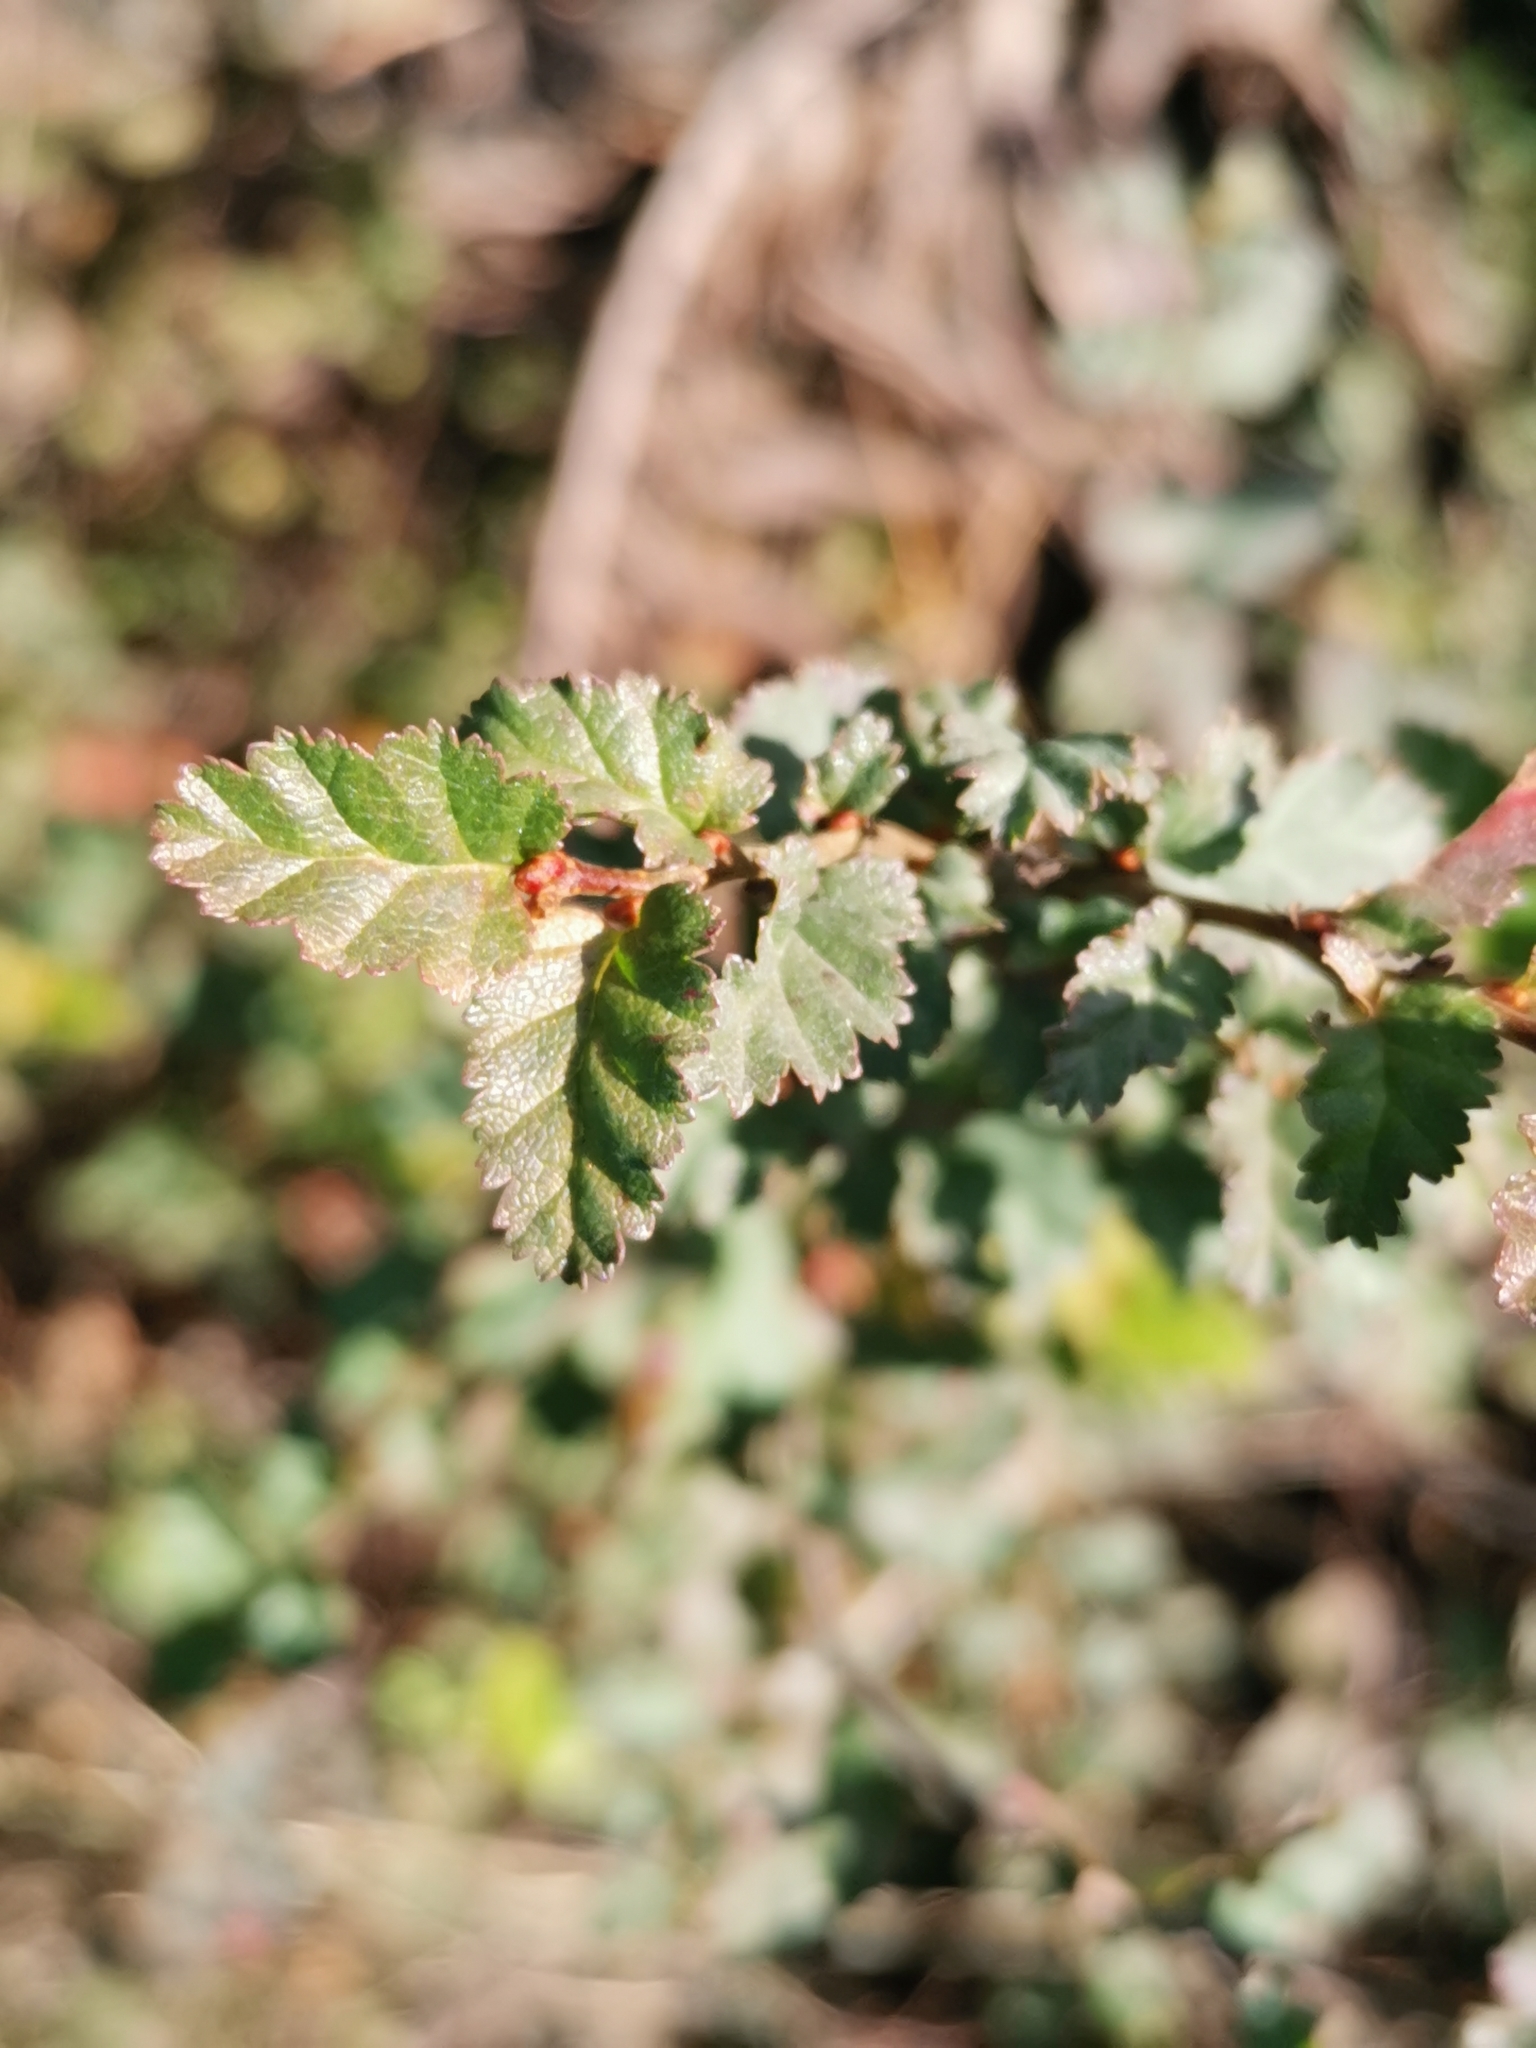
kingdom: Plantae
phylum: Tracheophyta
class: Magnoliopsida
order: Fagales
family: Nothofagaceae
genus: Nothofagus
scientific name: Nothofagus antarctica
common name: Antarctic beech
